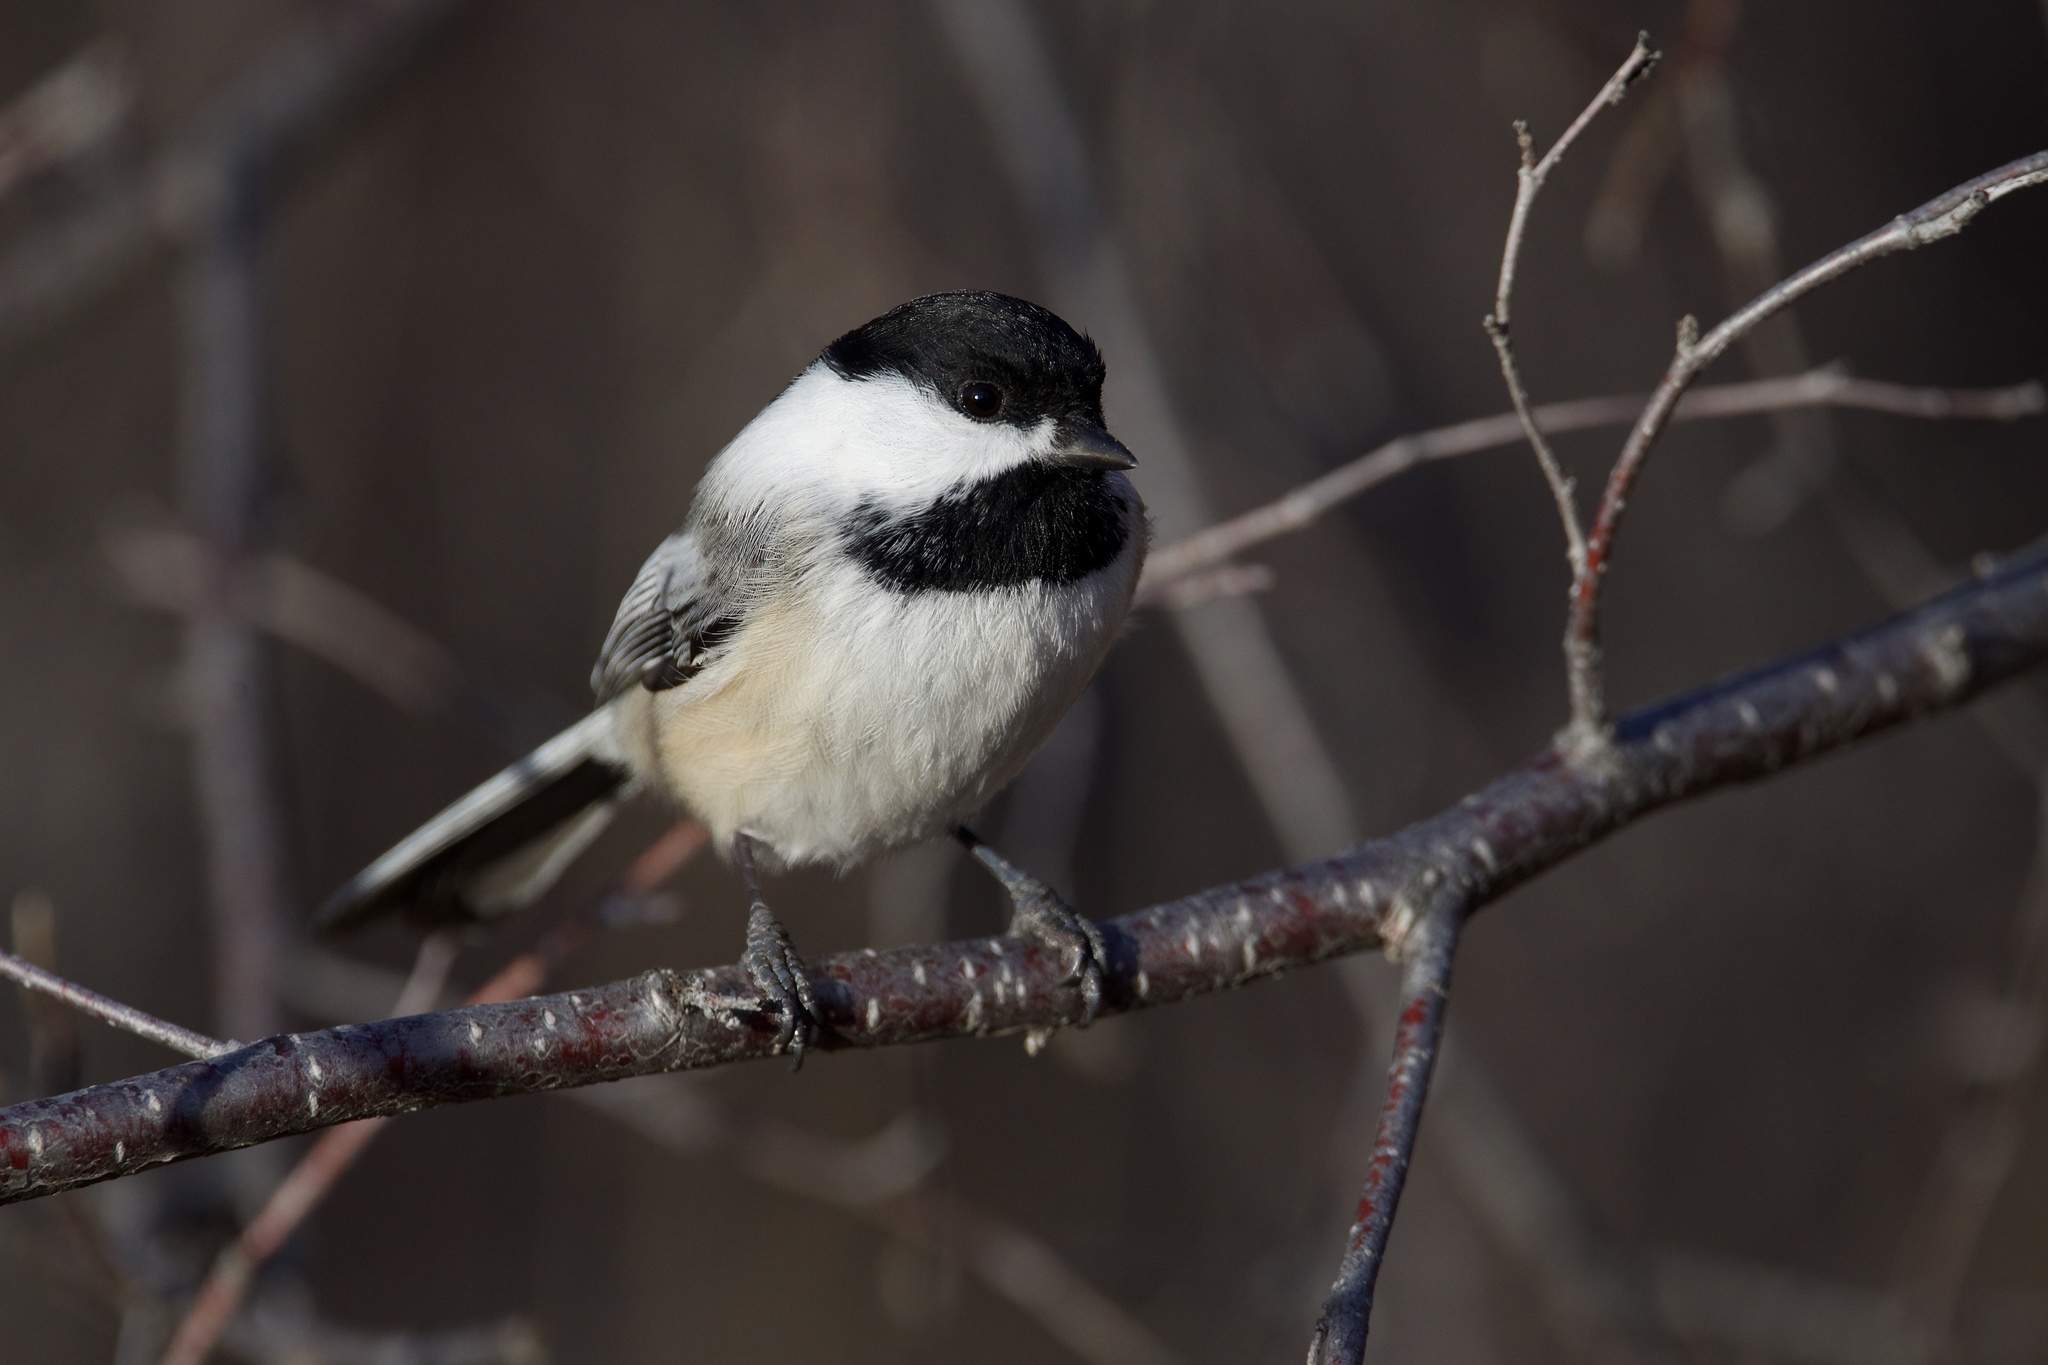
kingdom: Animalia
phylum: Chordata
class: Aves
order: Passeriformes
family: Paridae
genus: Poecile
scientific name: Poecile atricapillus
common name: Black-capped chickadee
